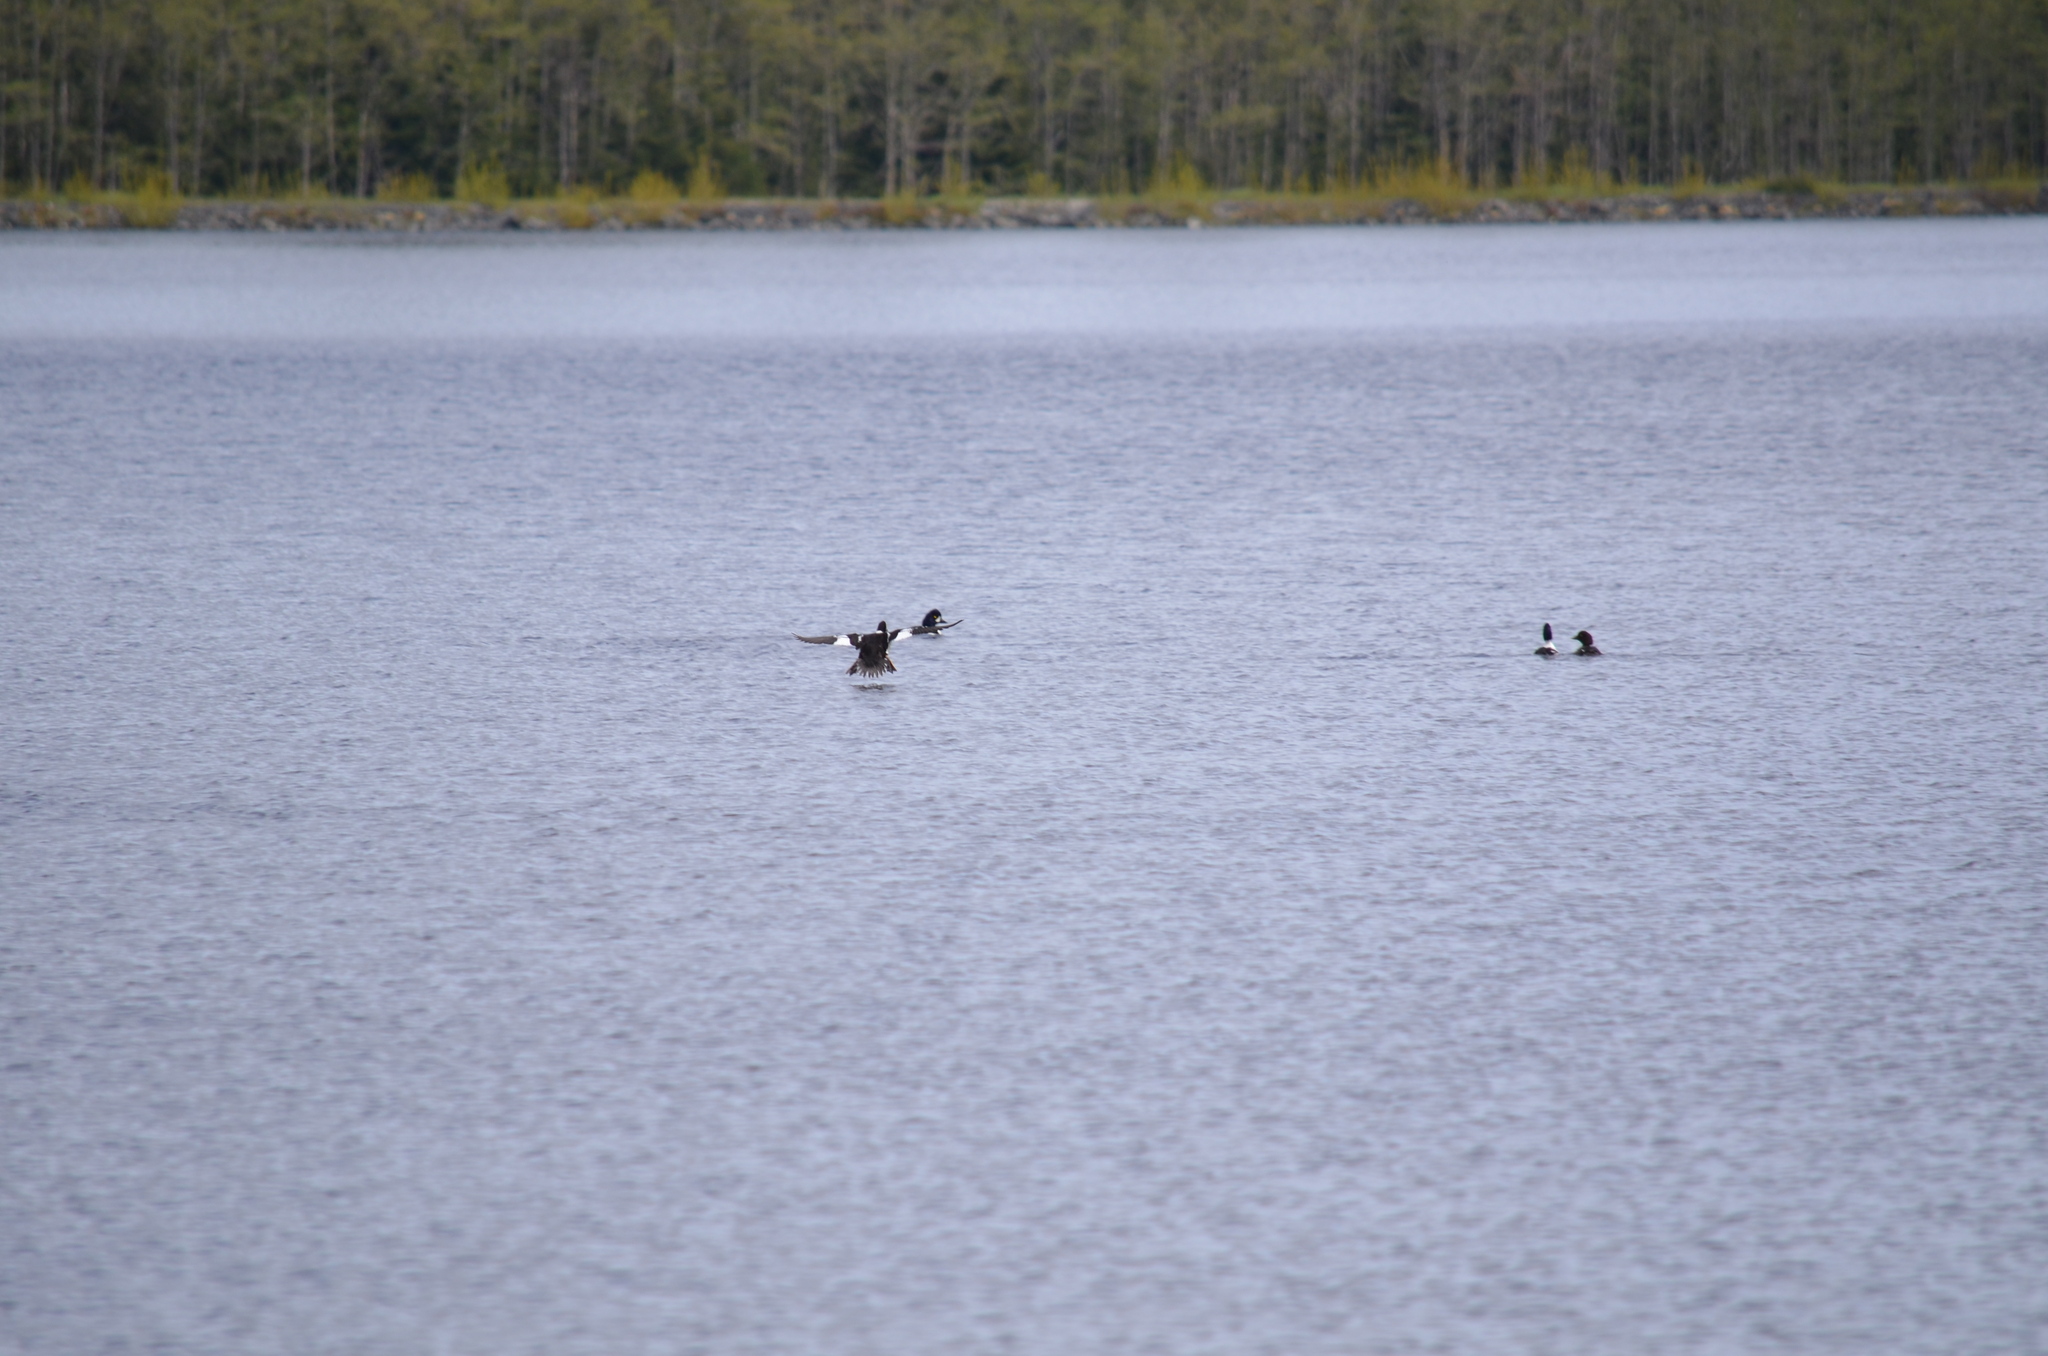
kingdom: Animalia
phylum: Chordata
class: Aves
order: Anseriformes
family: Anatidae
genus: Bucephala
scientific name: Bucephala islandica
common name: Barrow's goldeneye
